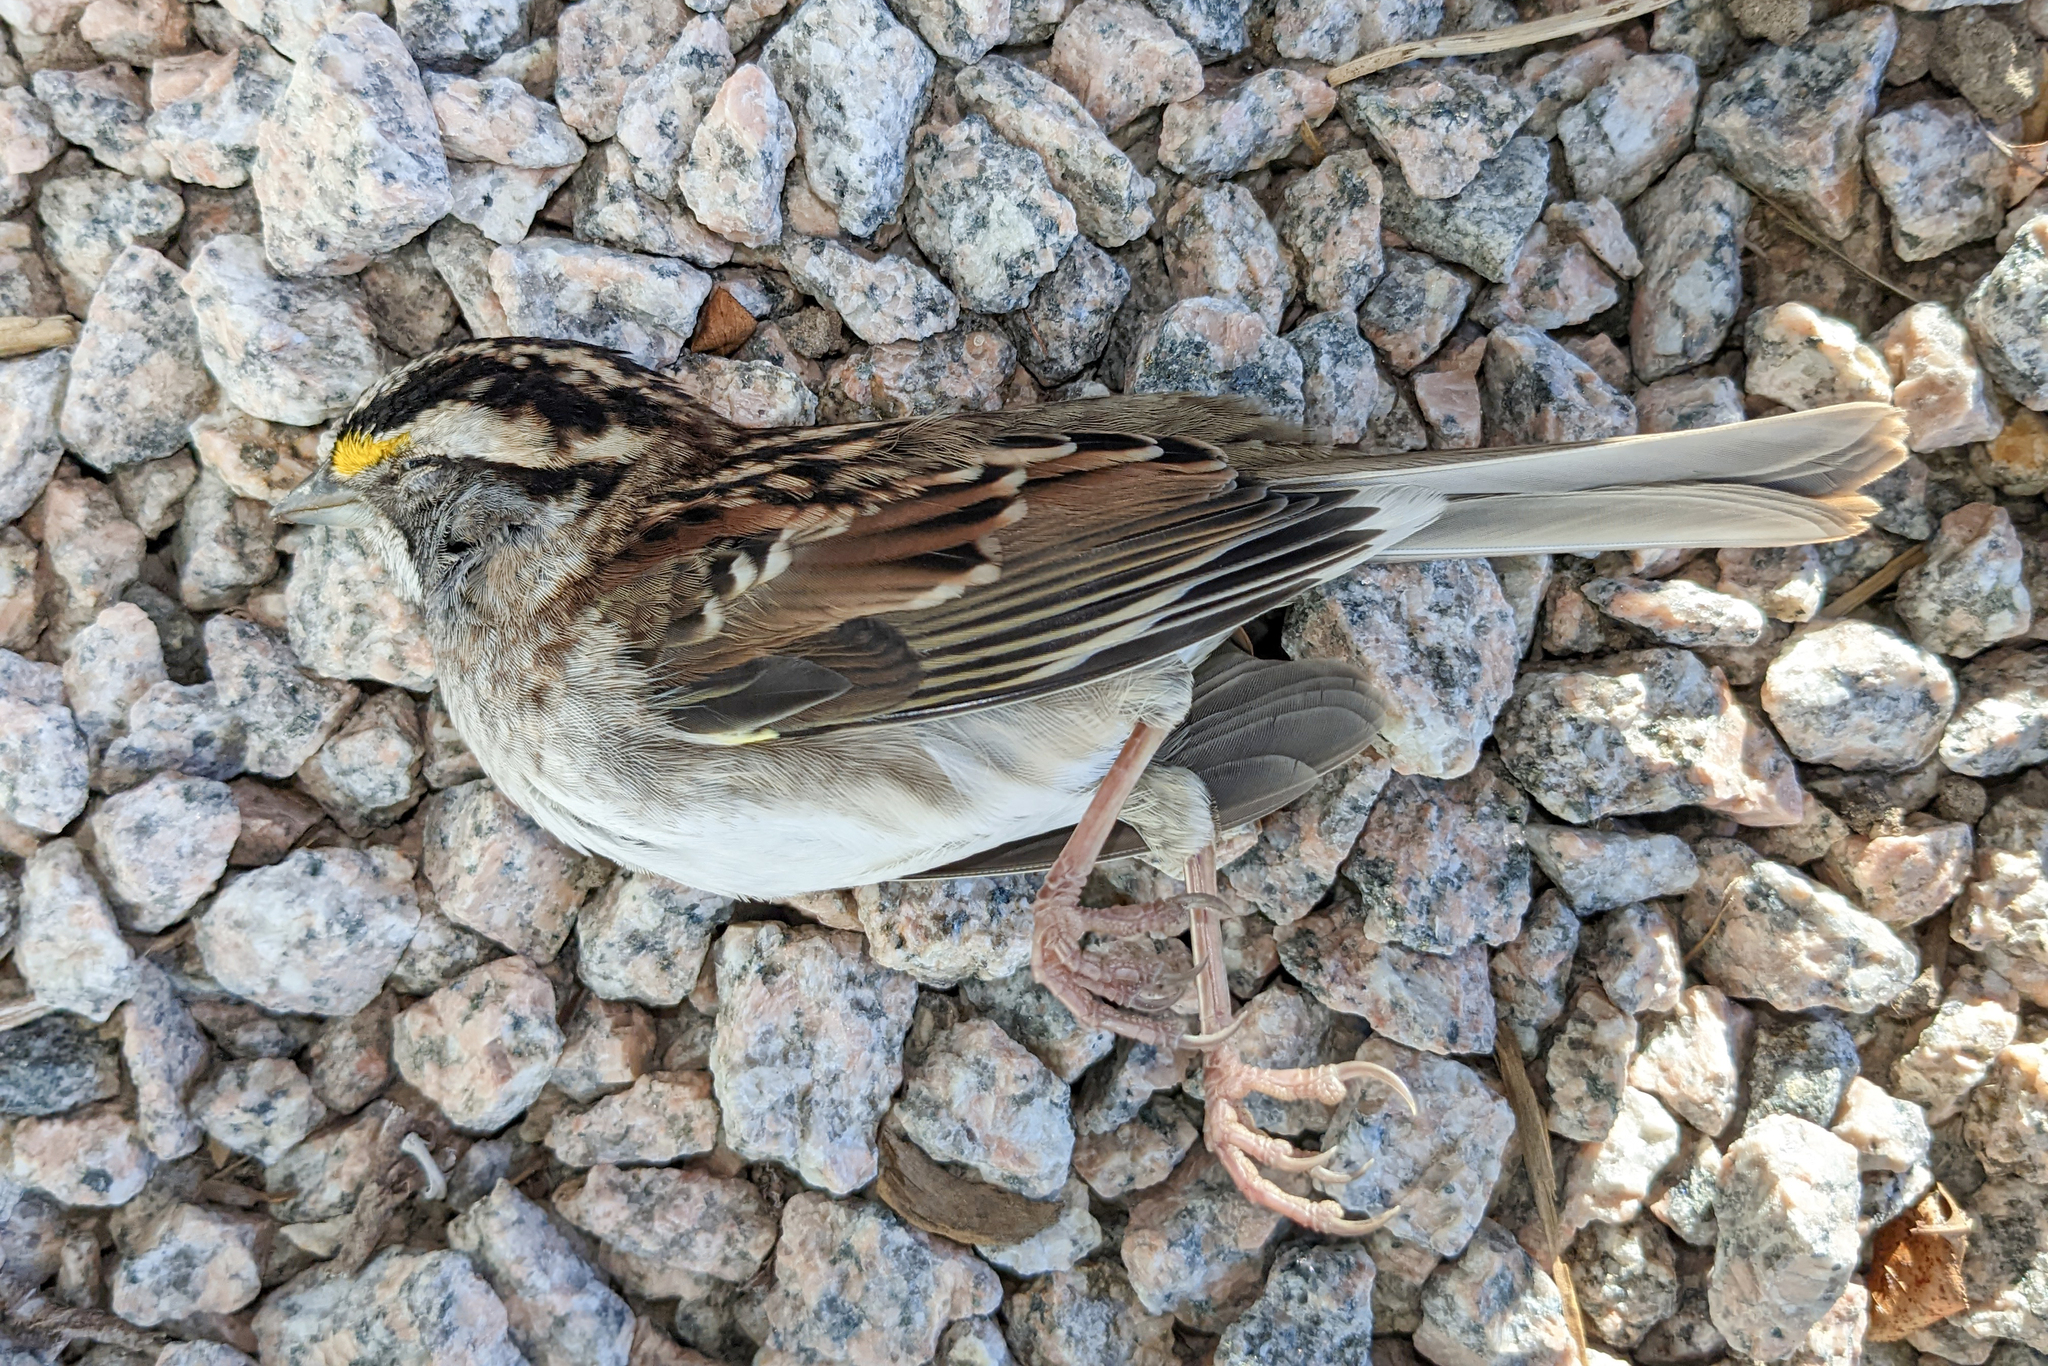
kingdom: Animalia
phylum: Chordata
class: Aves
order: Passeriformes
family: Passerellidae
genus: Zonotrichia
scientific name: Zonotrichia albicollis
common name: White-throated sparrow
